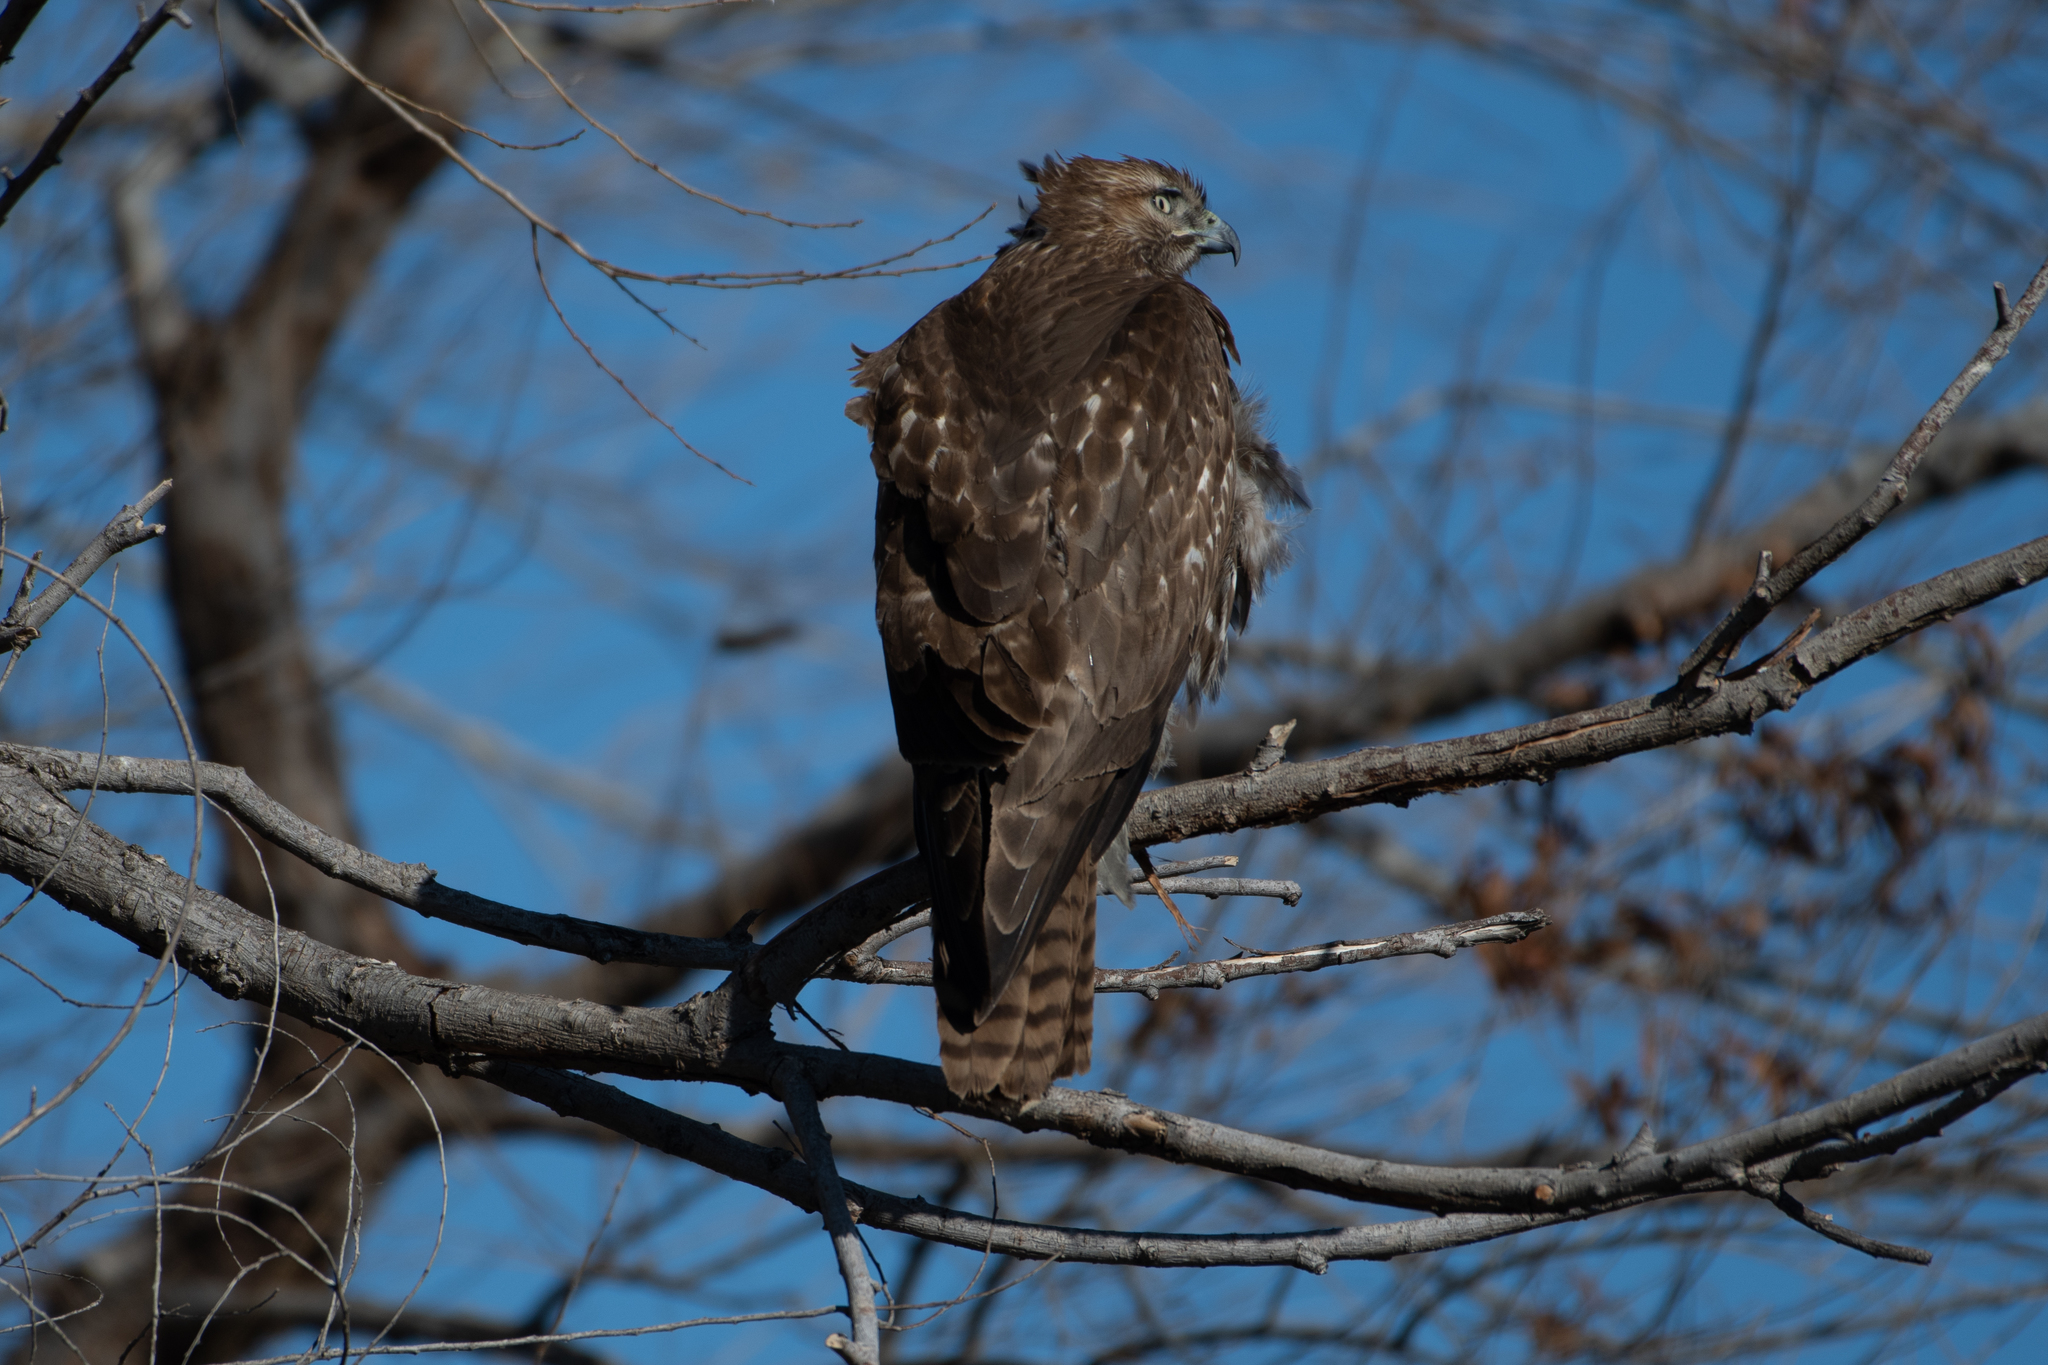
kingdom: Animalia
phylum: Chordata
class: Aves
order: Accipitriformes
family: Accipitridae
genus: Buteo
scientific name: Buteo jamaicensis
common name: Red-tailed hawk
